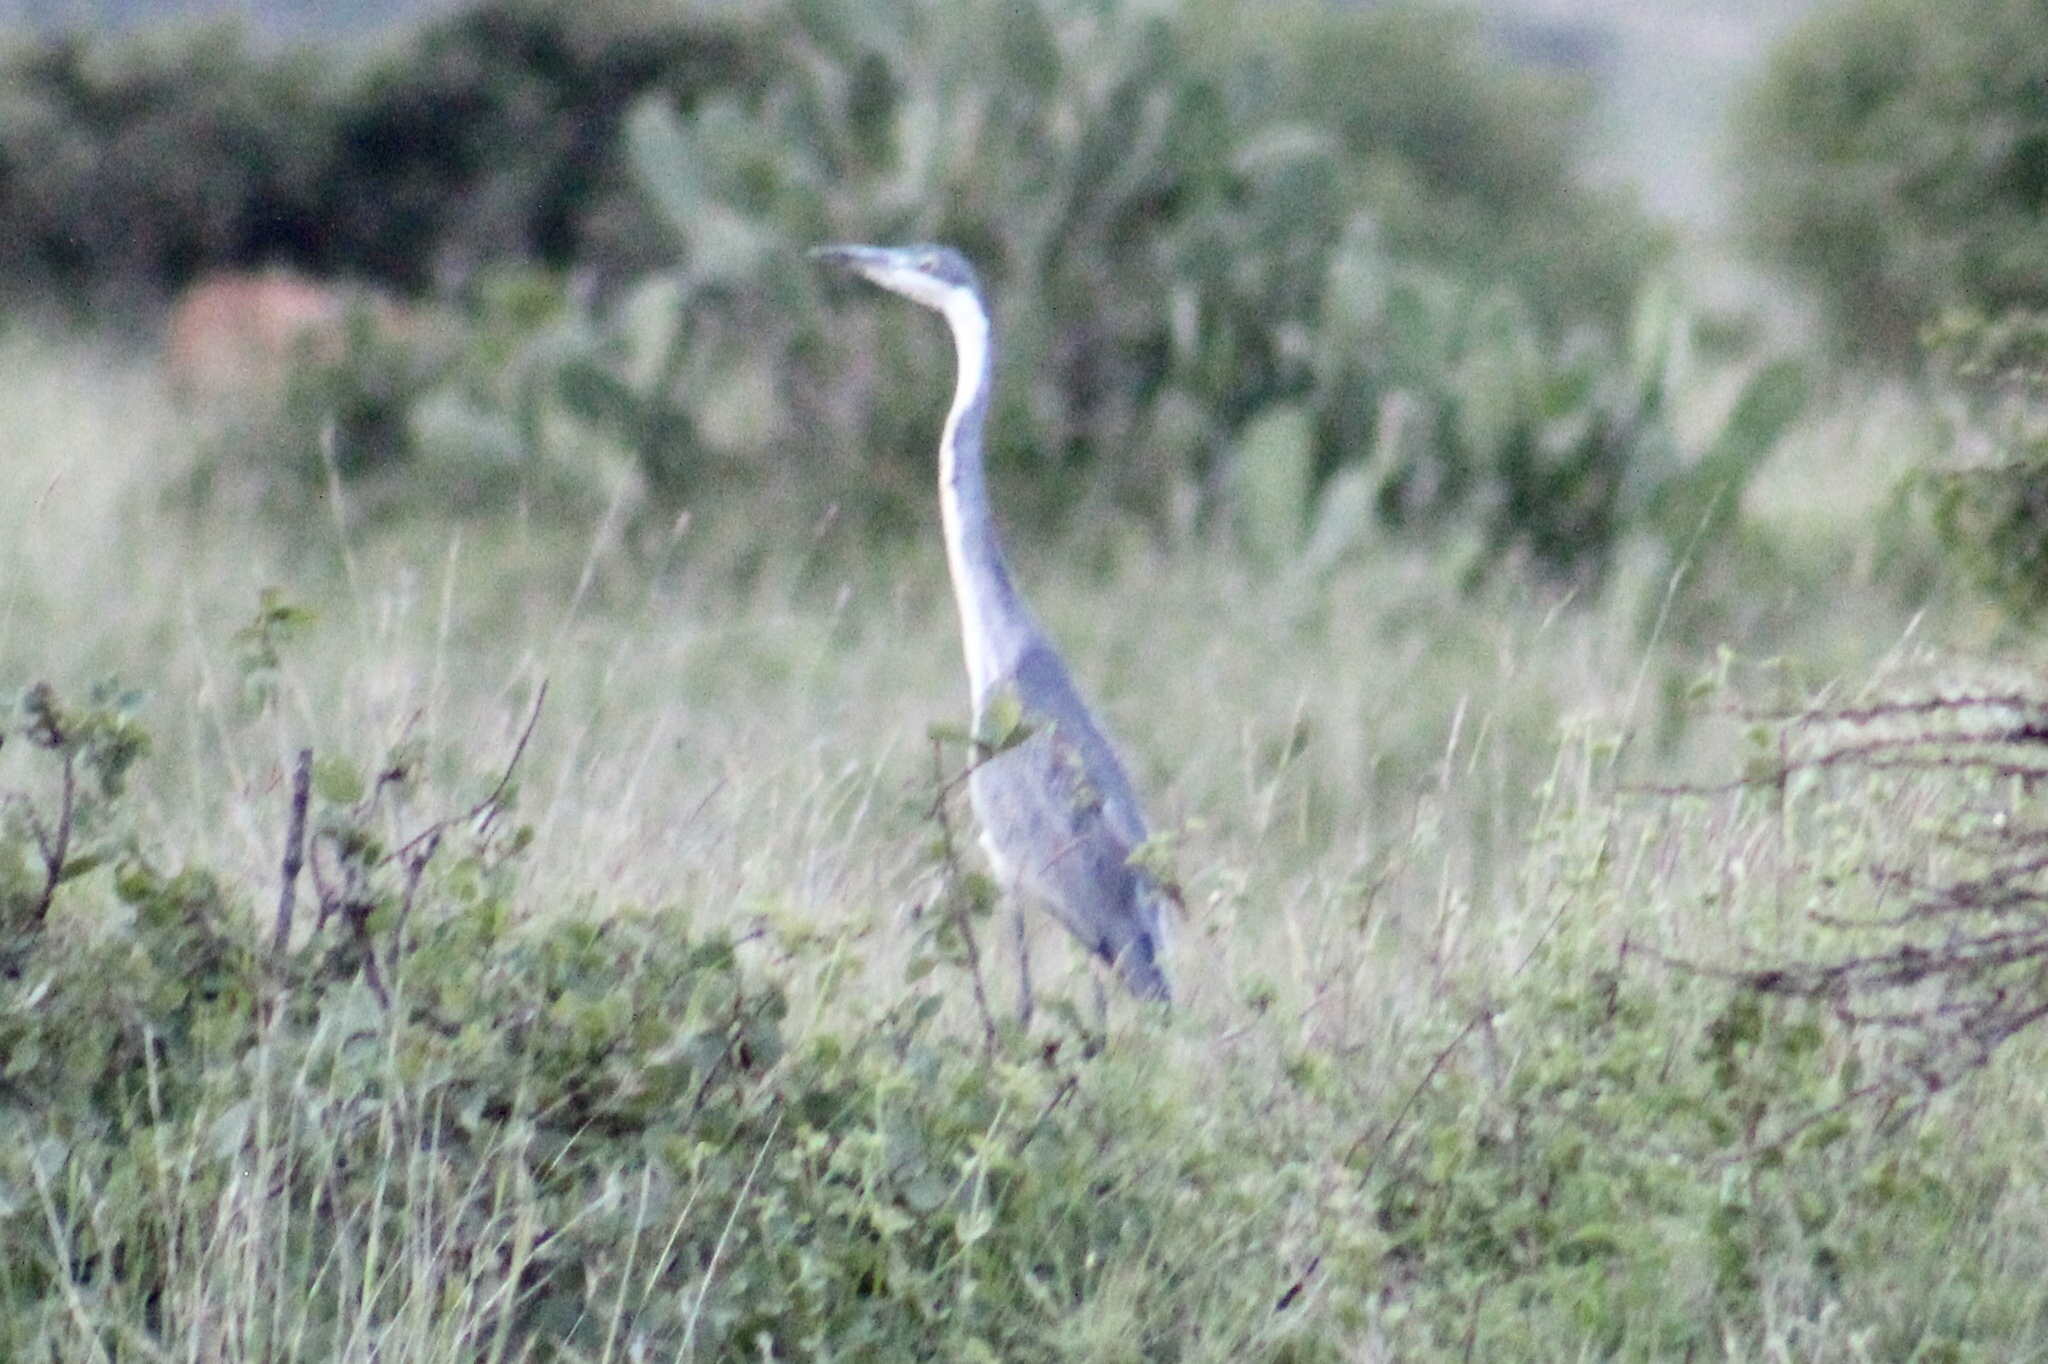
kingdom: Animalia
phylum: Chordata
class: Aves
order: Pelecaniformes
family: Ardeidae
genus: Ardea
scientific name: Ardea melanocephala
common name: Black-headed heron
